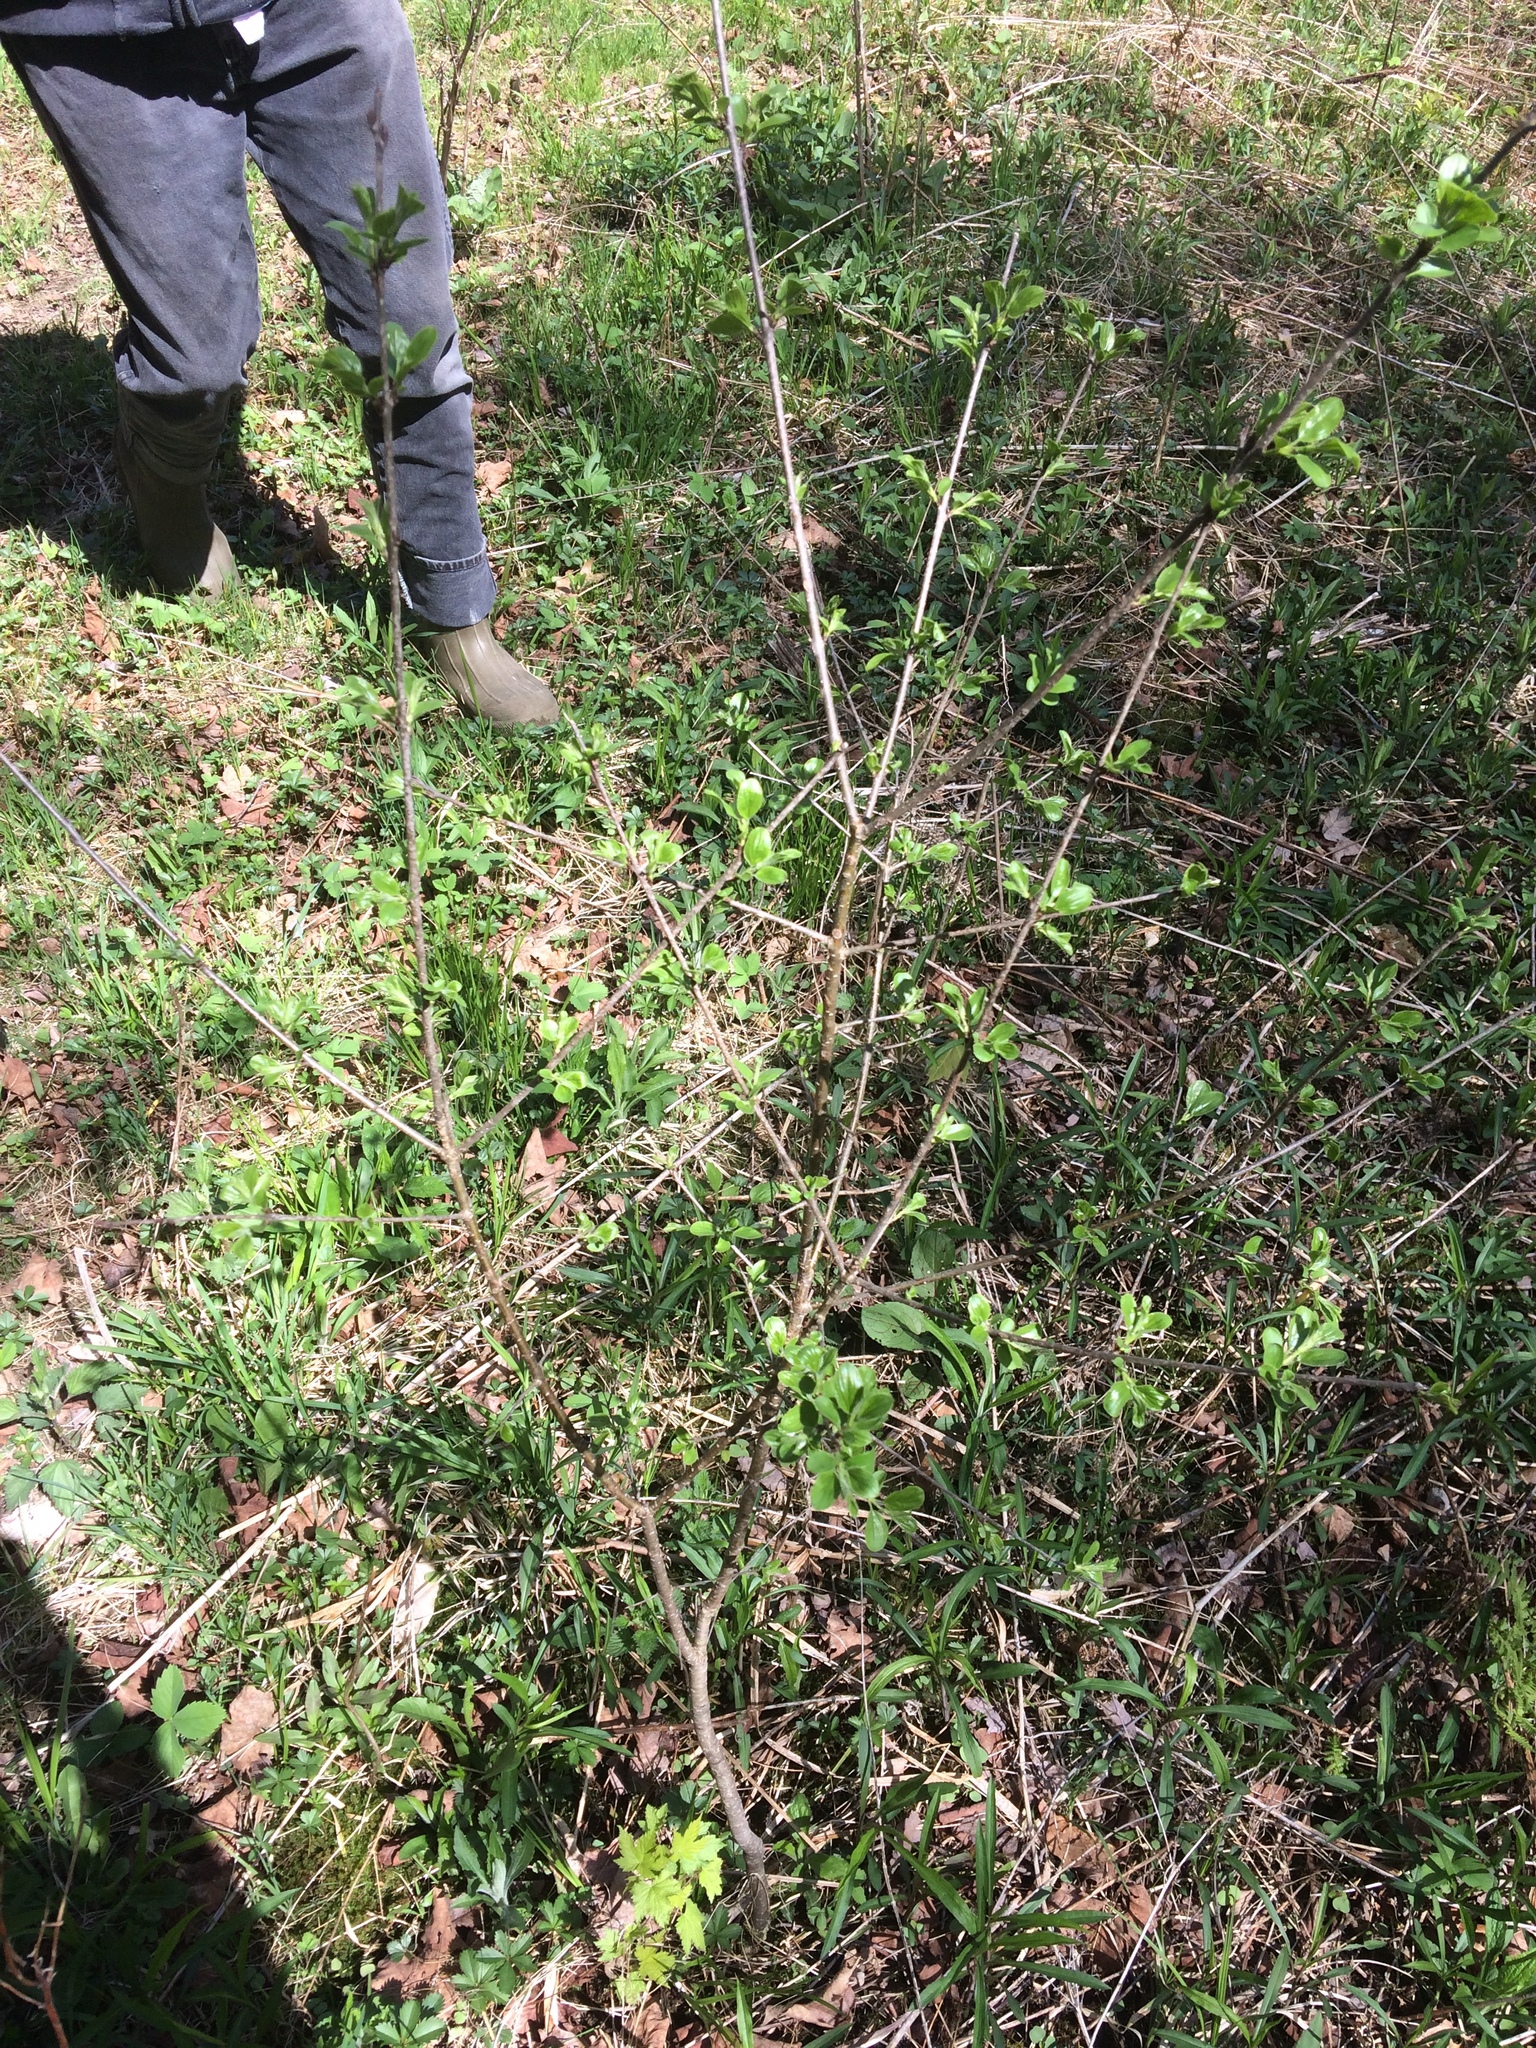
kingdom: Plantae
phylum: Tracheophyta
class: Magnoliopsida
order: Rosales
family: Rhamnaceae
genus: Rhamnus
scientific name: Rhamnus cathartica
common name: Common buckthorn
